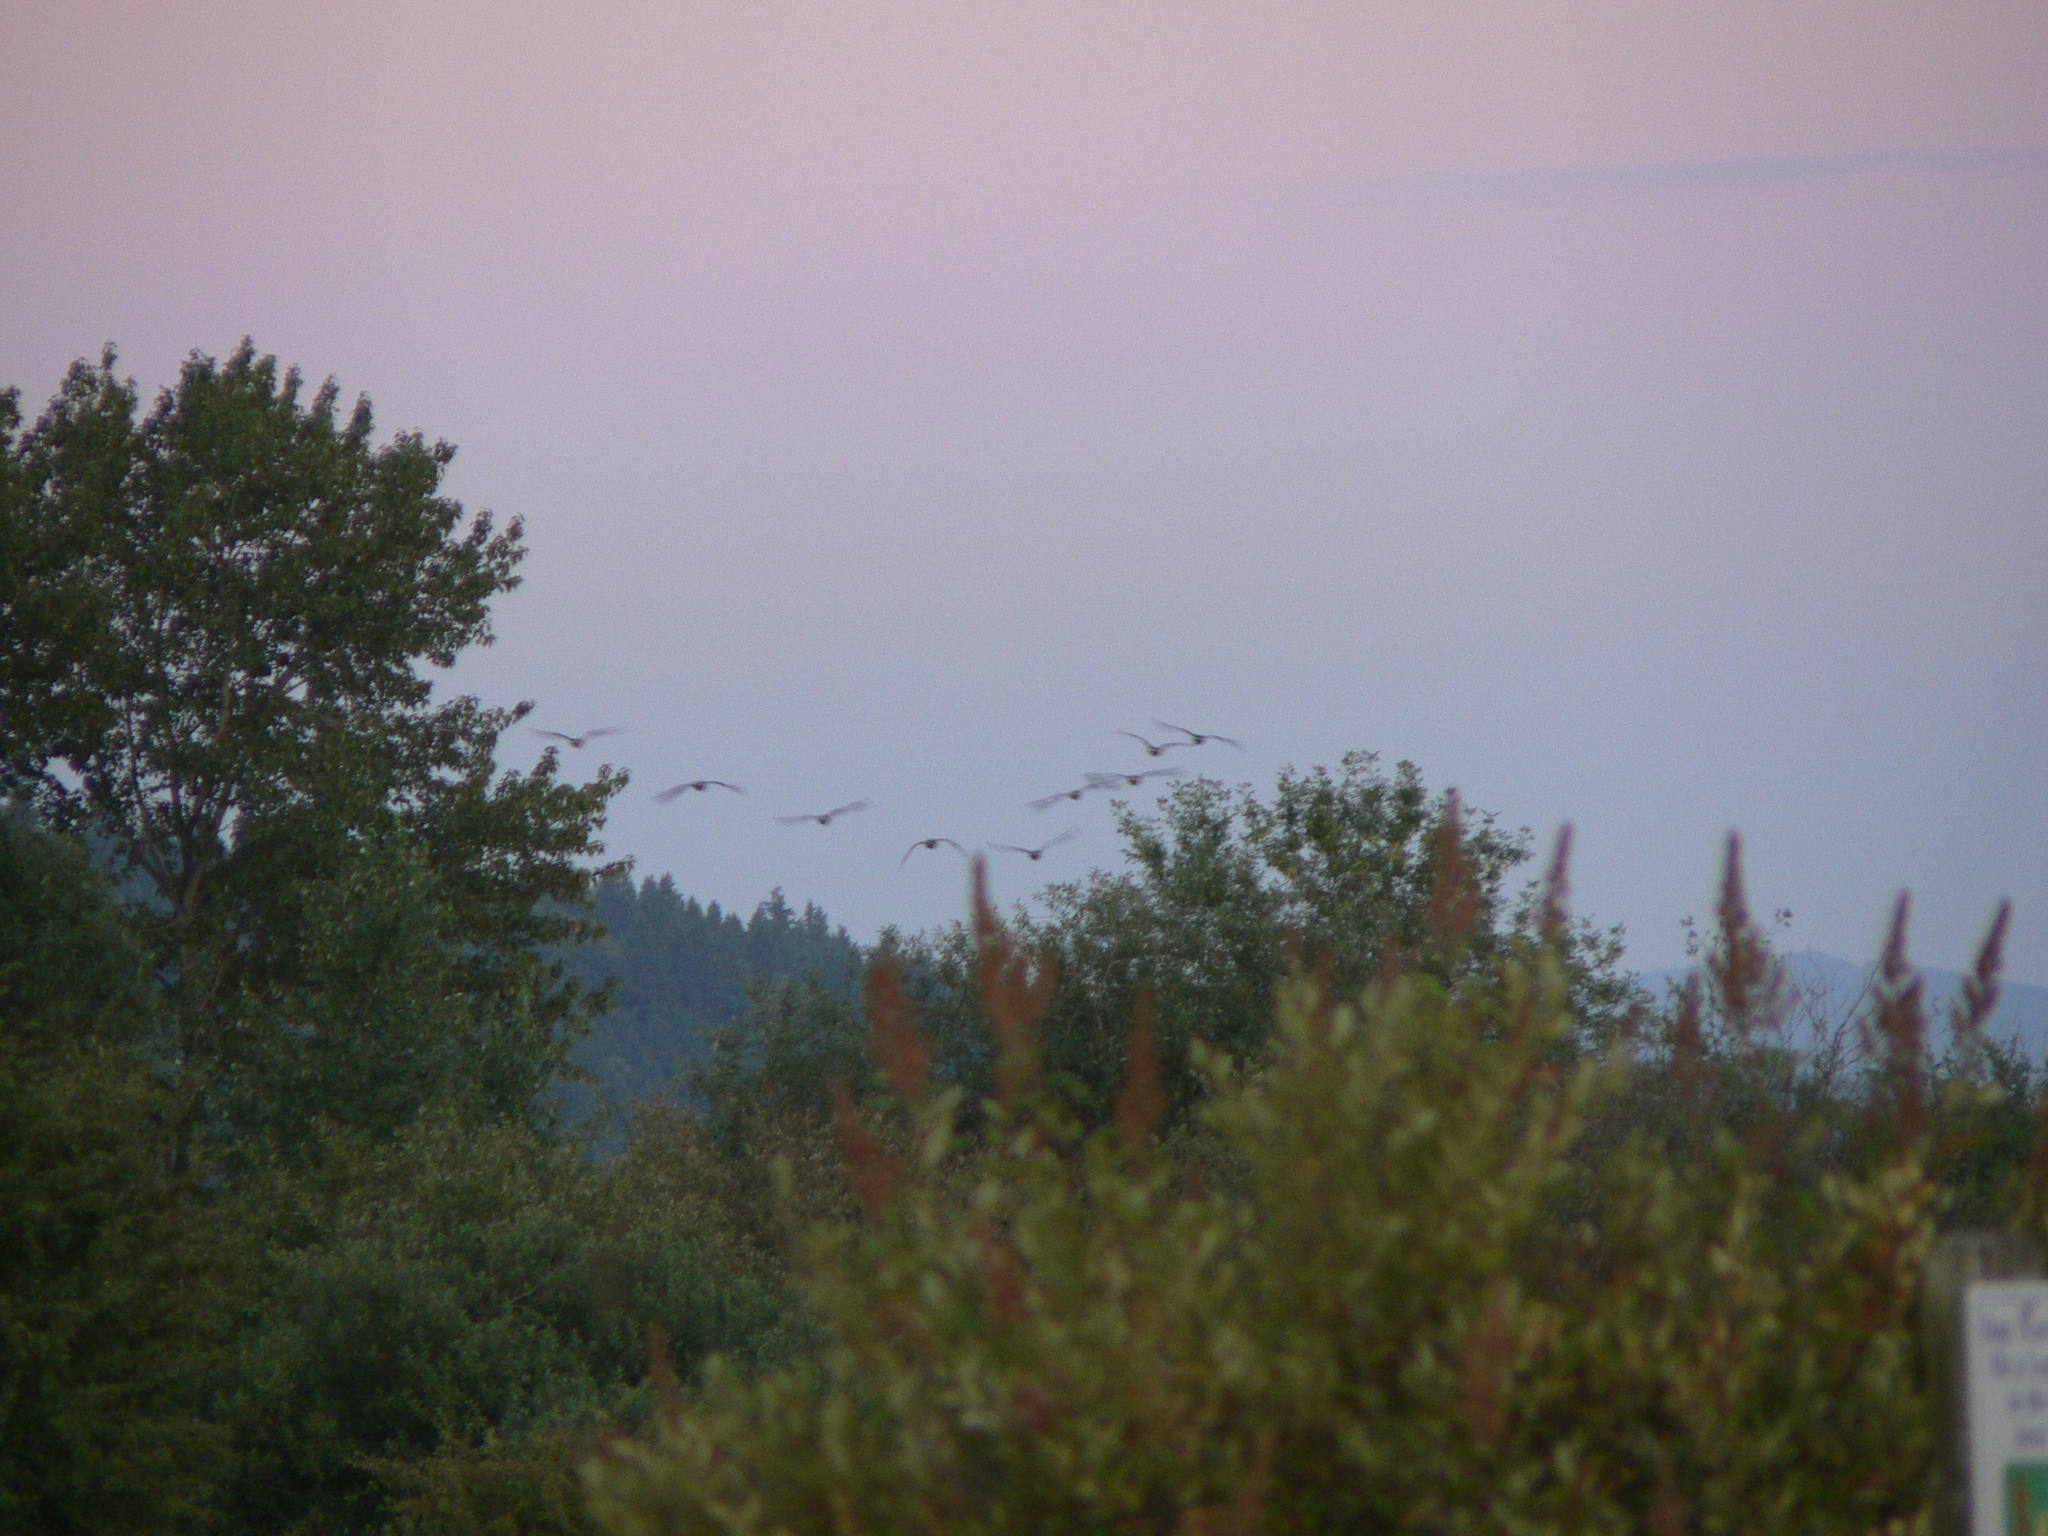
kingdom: Animalia
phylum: Chordata
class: Aves
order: Anseriformes
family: Anatidae
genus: Branta
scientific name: Branta canadensis
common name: Canada goose
